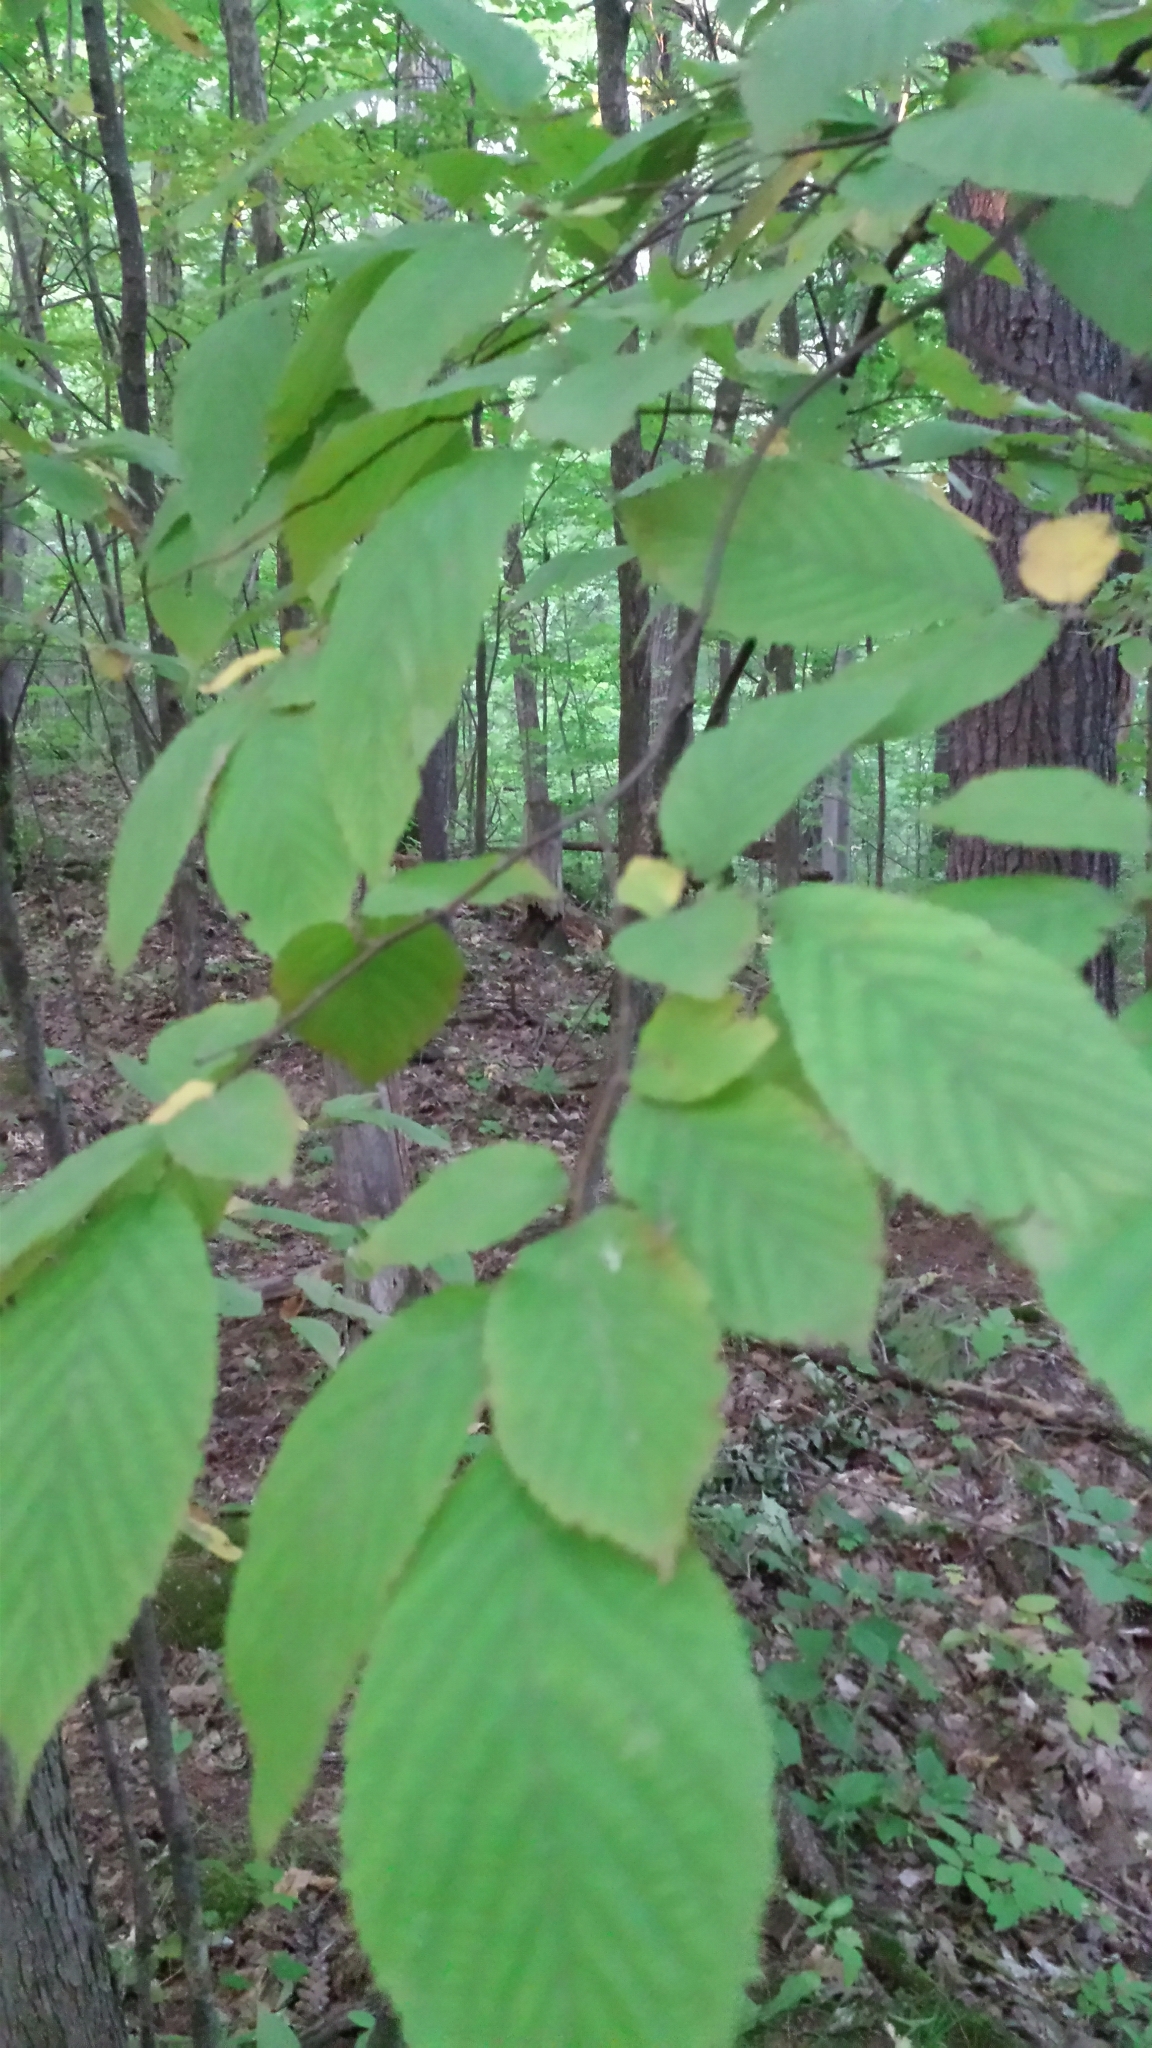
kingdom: Plantae
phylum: Tracheophyta
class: Magnoliopsida
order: Fagales
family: Betulaceae
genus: Ostrya
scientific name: Ostrya virginiana
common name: Ironwood
